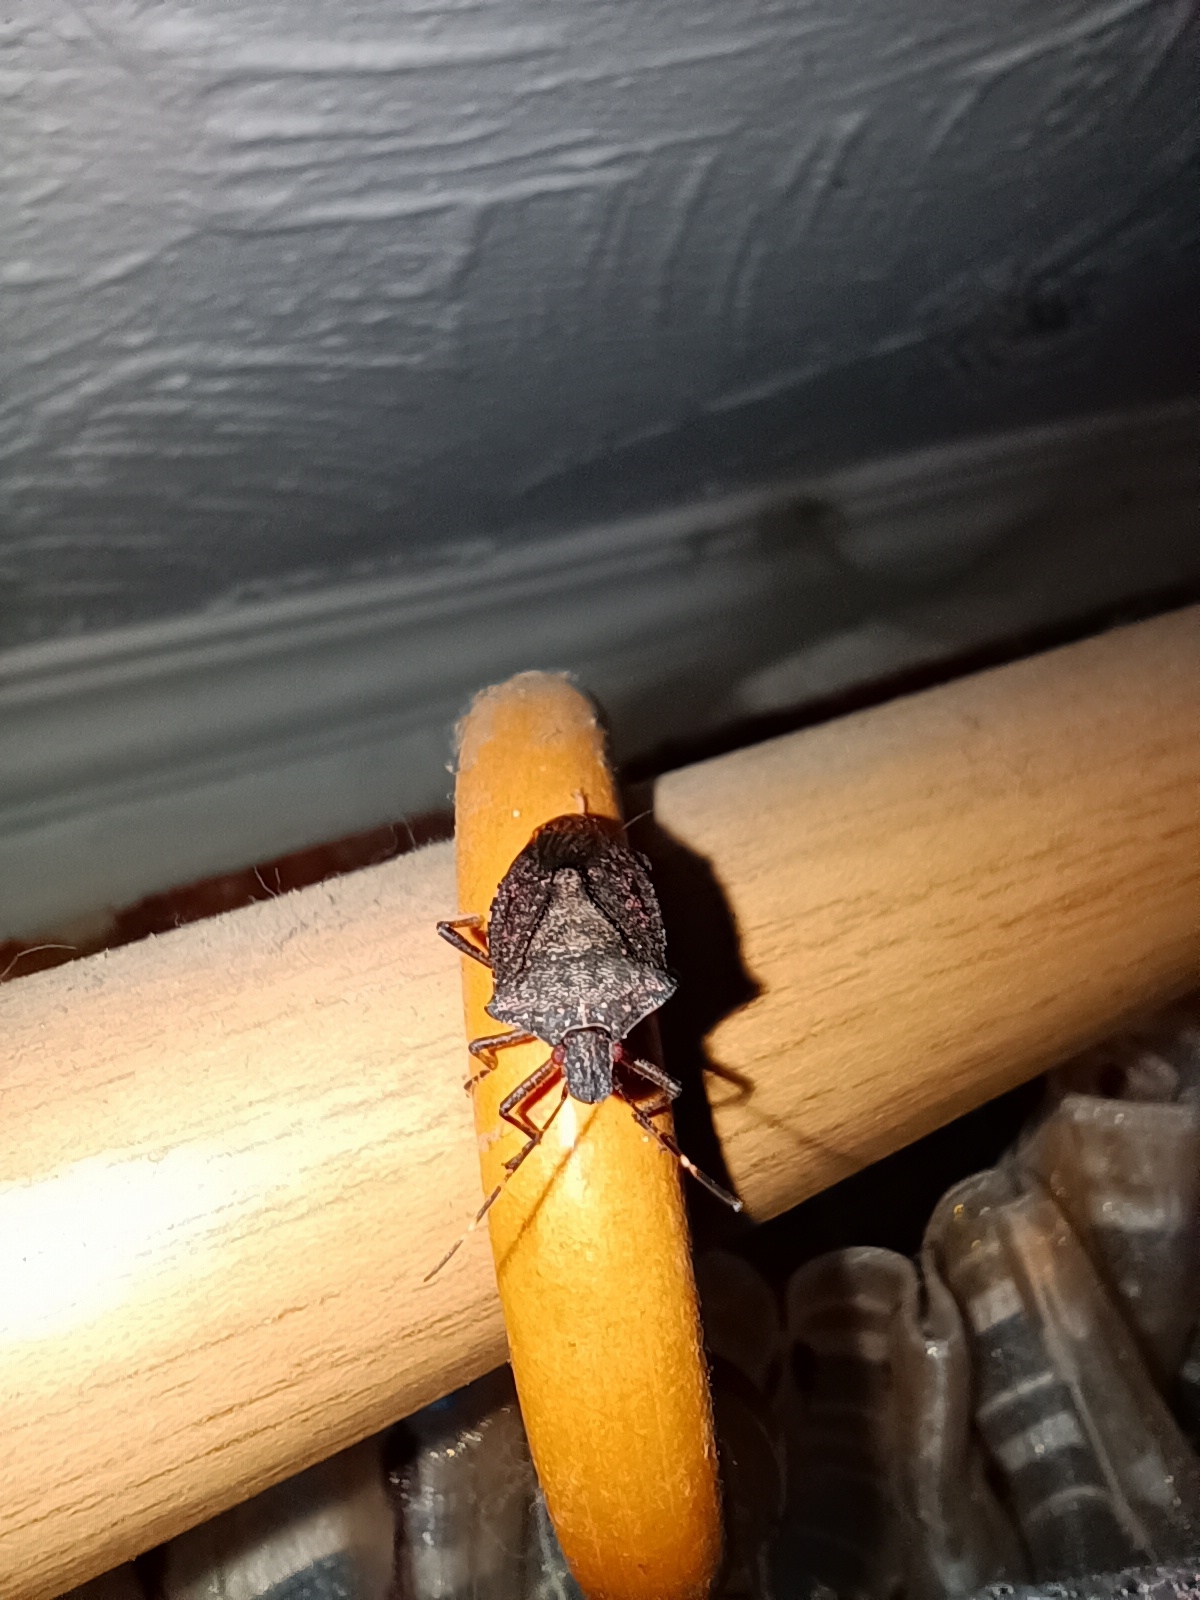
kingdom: Animalia
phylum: Arthropoda
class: Insecta
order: Hemiptera
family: Pentatomidae
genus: Halyomorpha
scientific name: Halyomorpha halys
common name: Brown marmorated stink bug
